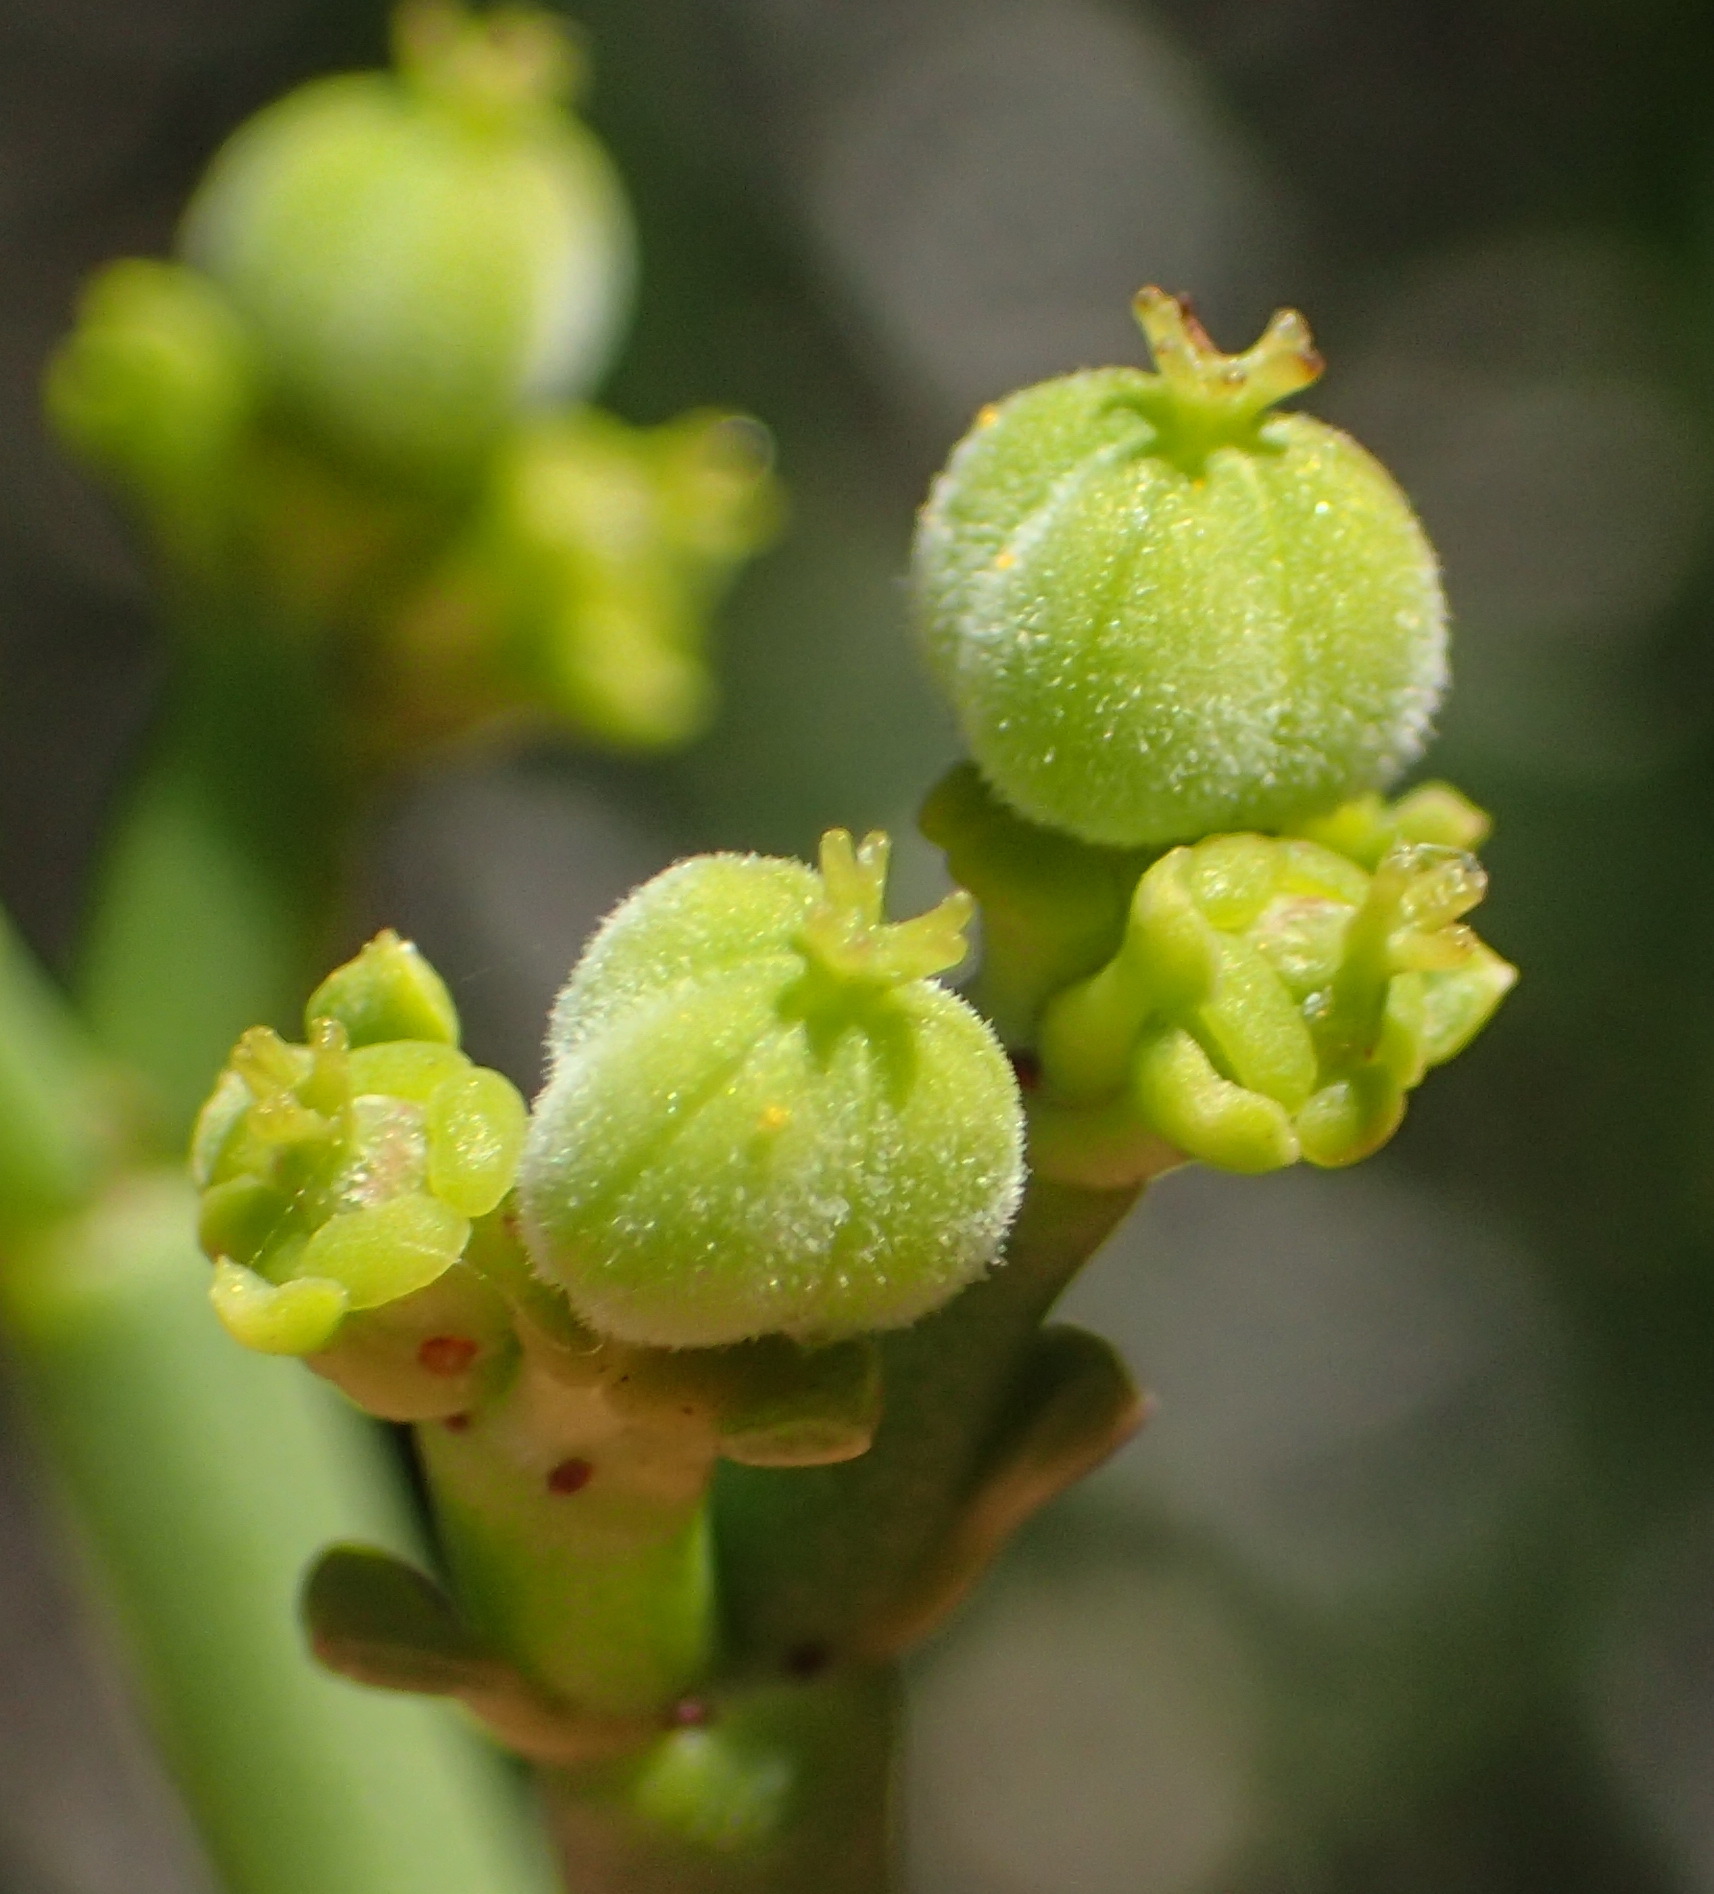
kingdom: Plantae
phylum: Tracheophyta
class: Magnoliopsida
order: Malpighiales
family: Euphorbiaceae
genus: Euphorbia
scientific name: Euphorbia burmanni
